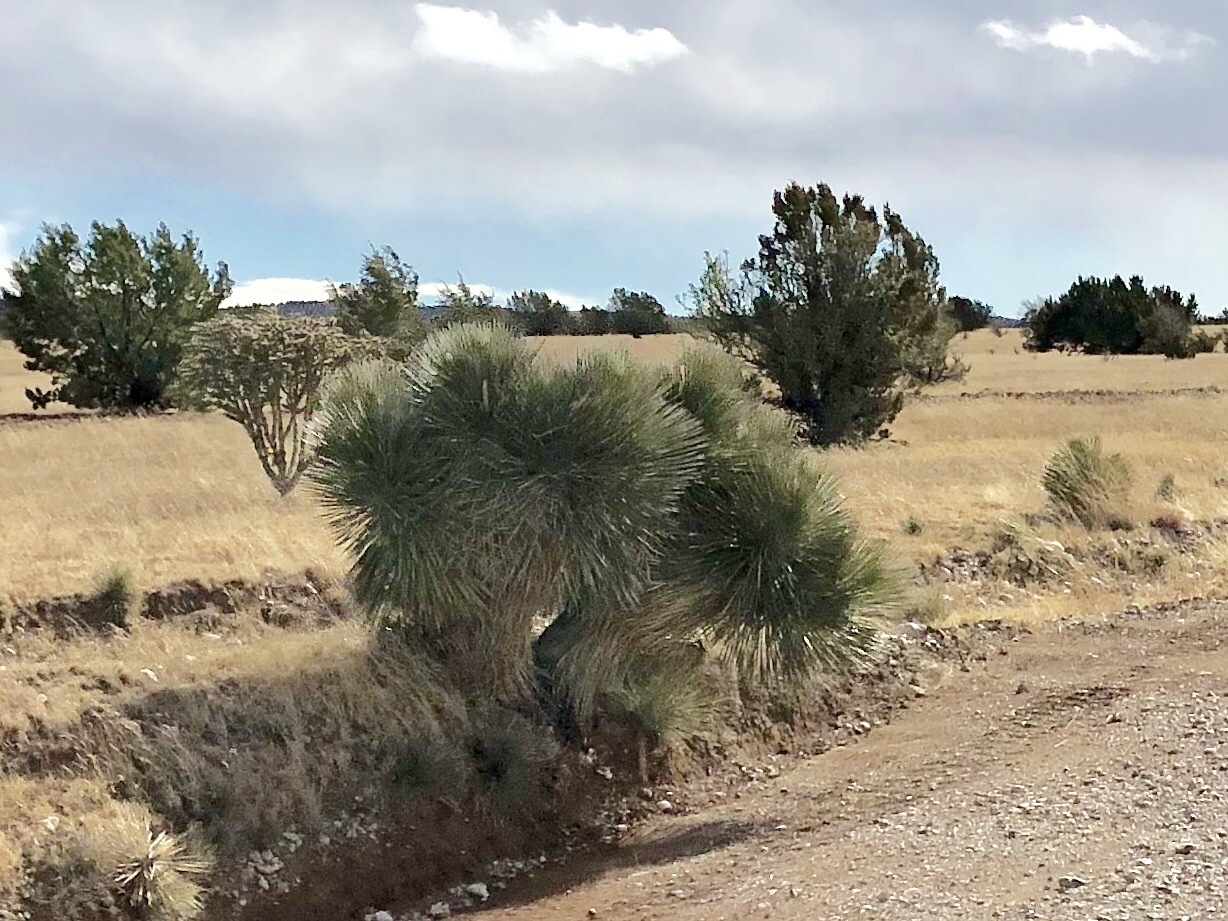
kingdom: Plantae
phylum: Tracheophyta
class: Liliopsida
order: Asparagales
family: Asparagaceae
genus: Yucca
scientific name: Yucca elata
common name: Palmella
